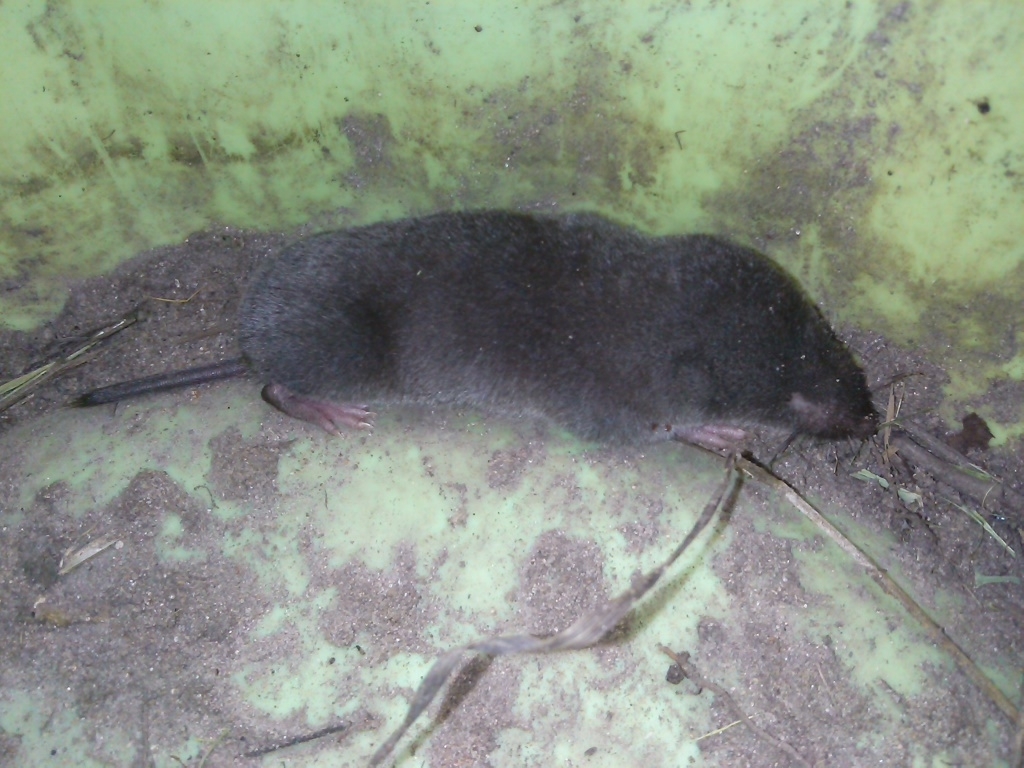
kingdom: Animalia
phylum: Chordata
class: Mammalia
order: Soricomorpha
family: Soricidae
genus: Blarina
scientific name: Blarina brevicauda
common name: Northern short-tailed shrew
